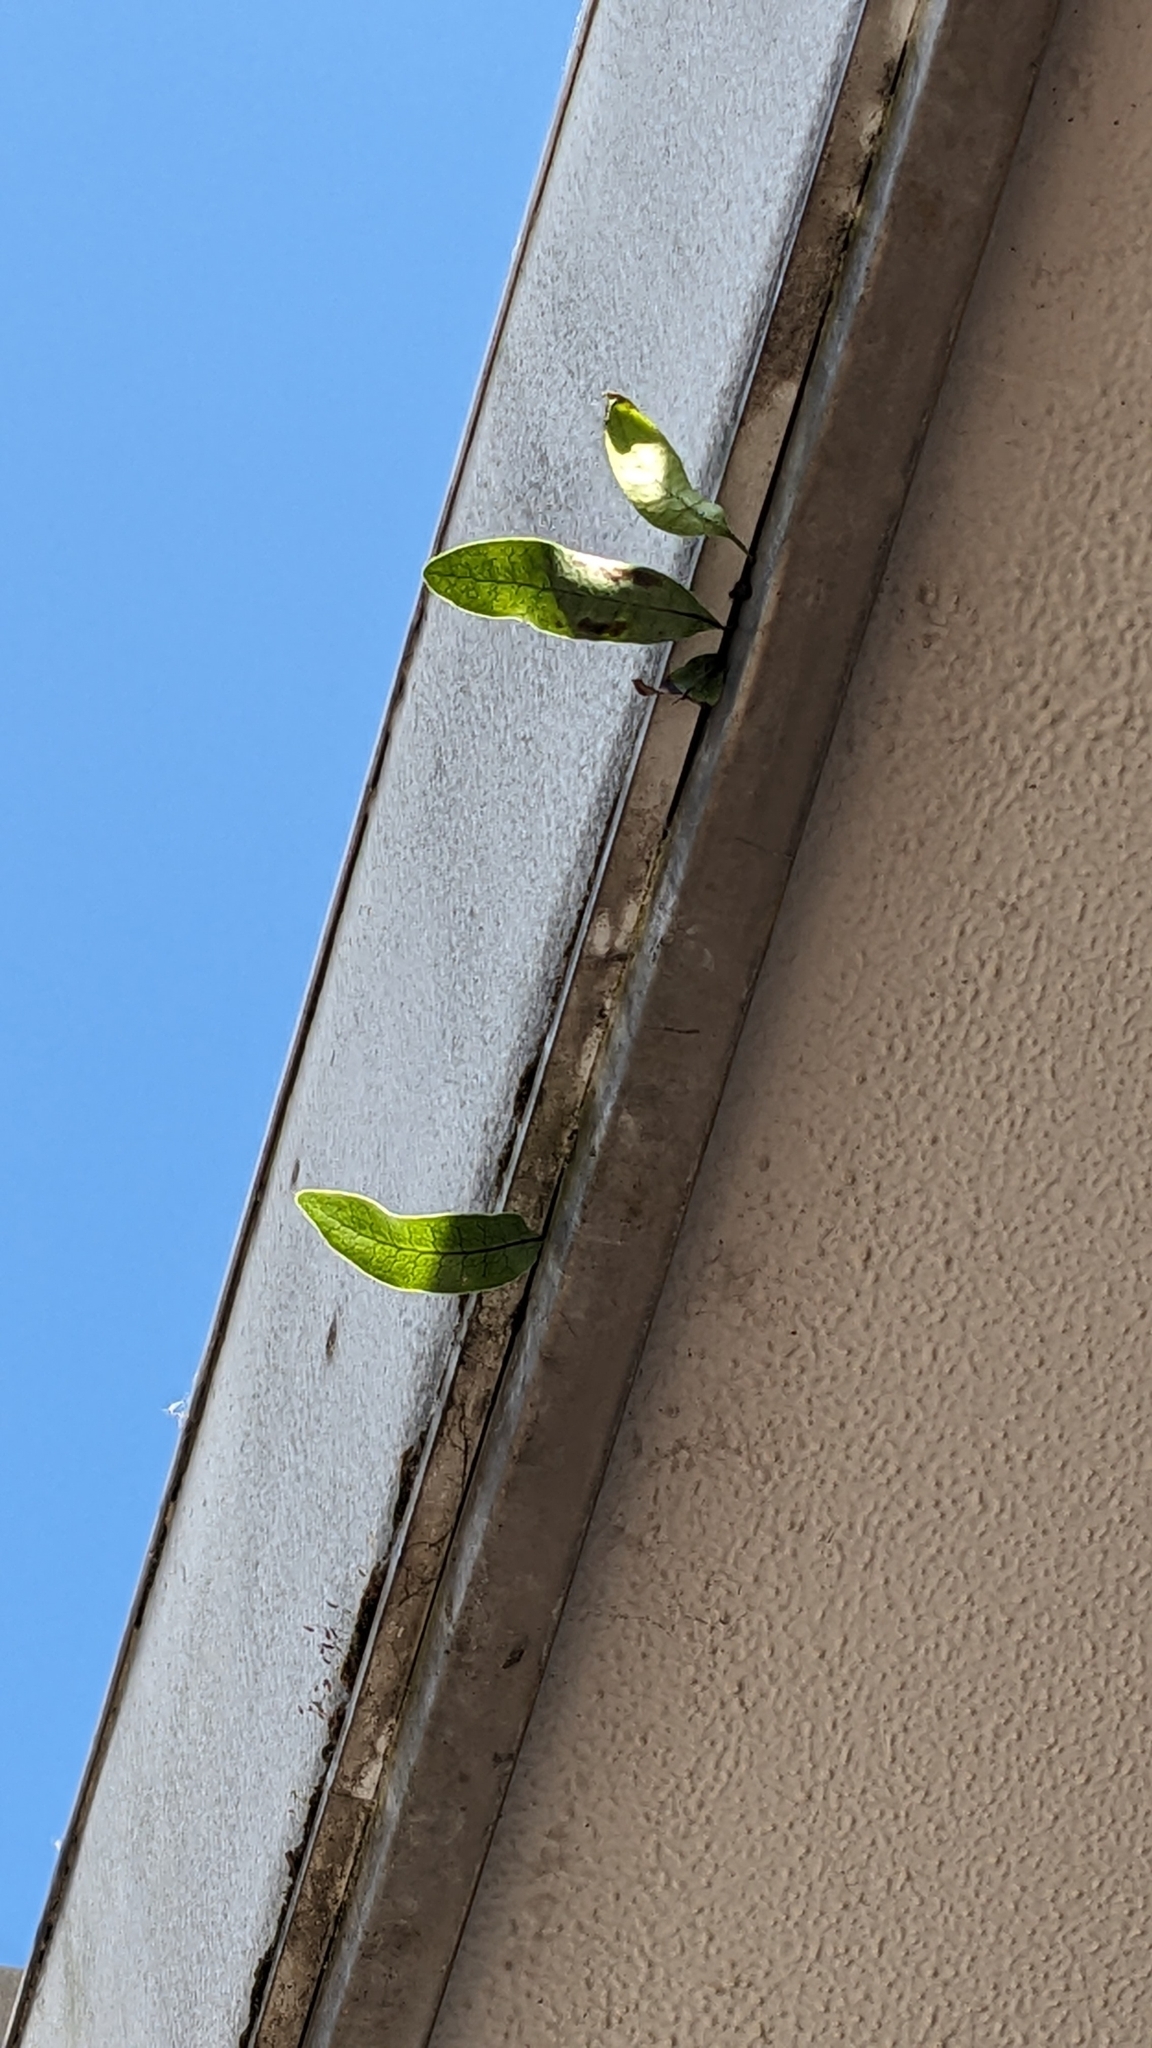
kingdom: Plantae
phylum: Tracheophyta
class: Polypodiopsida
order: Polypodiales
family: Polypodiaceae
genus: Lecanopteris
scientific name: Lecanopteris pustulata
